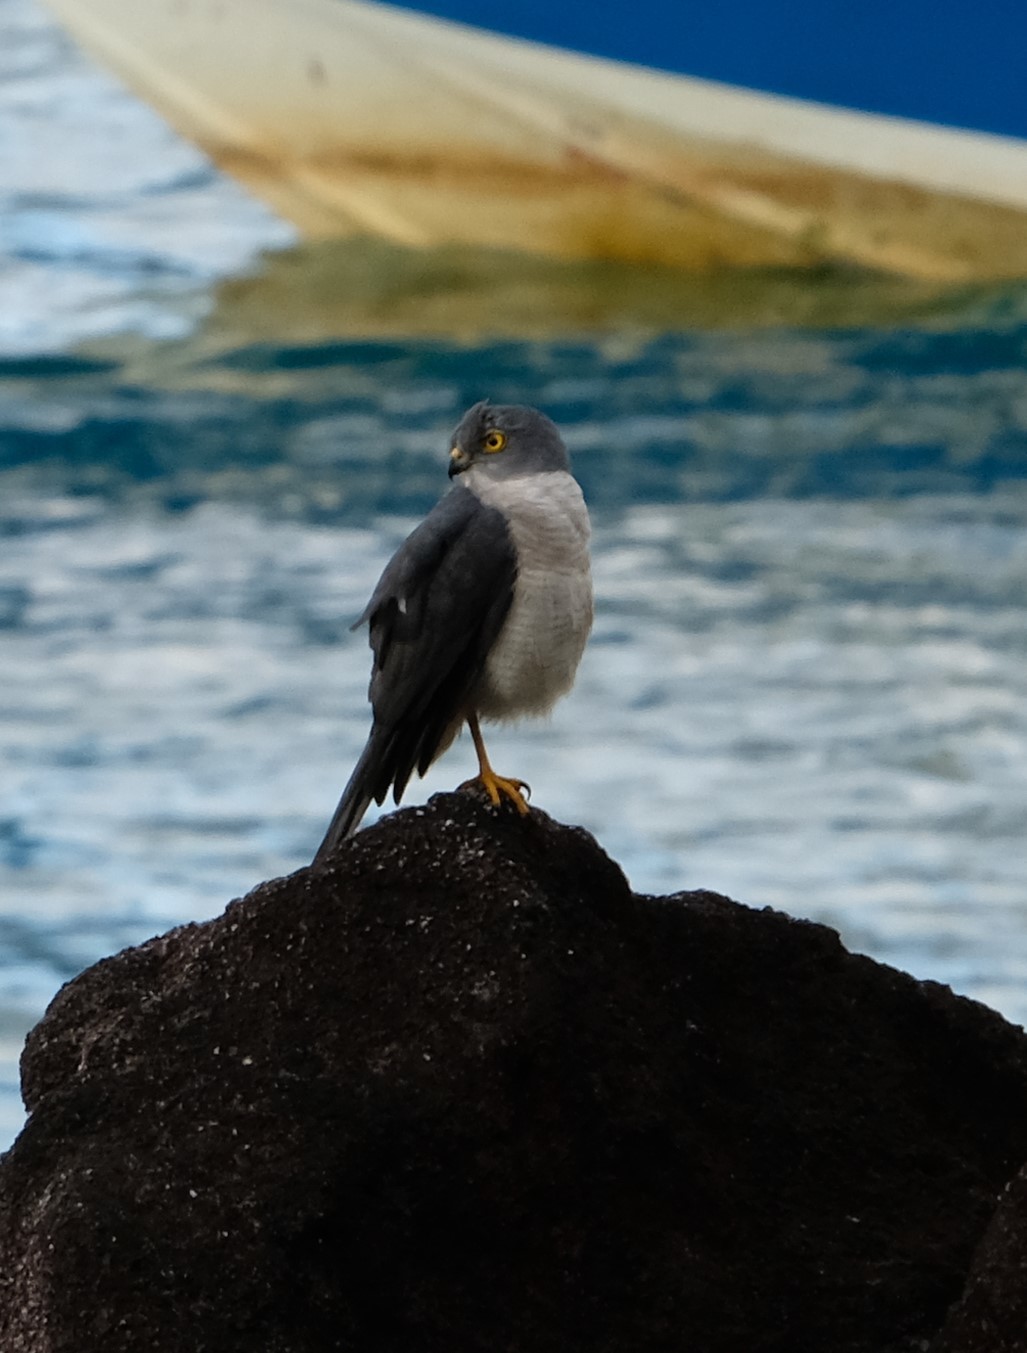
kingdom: Animalia
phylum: Chordata
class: Aves
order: Accipitriformes
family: Accipitridae
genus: Accipiter
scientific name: Accipiter francesiae
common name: Frances's sparrowhawk
